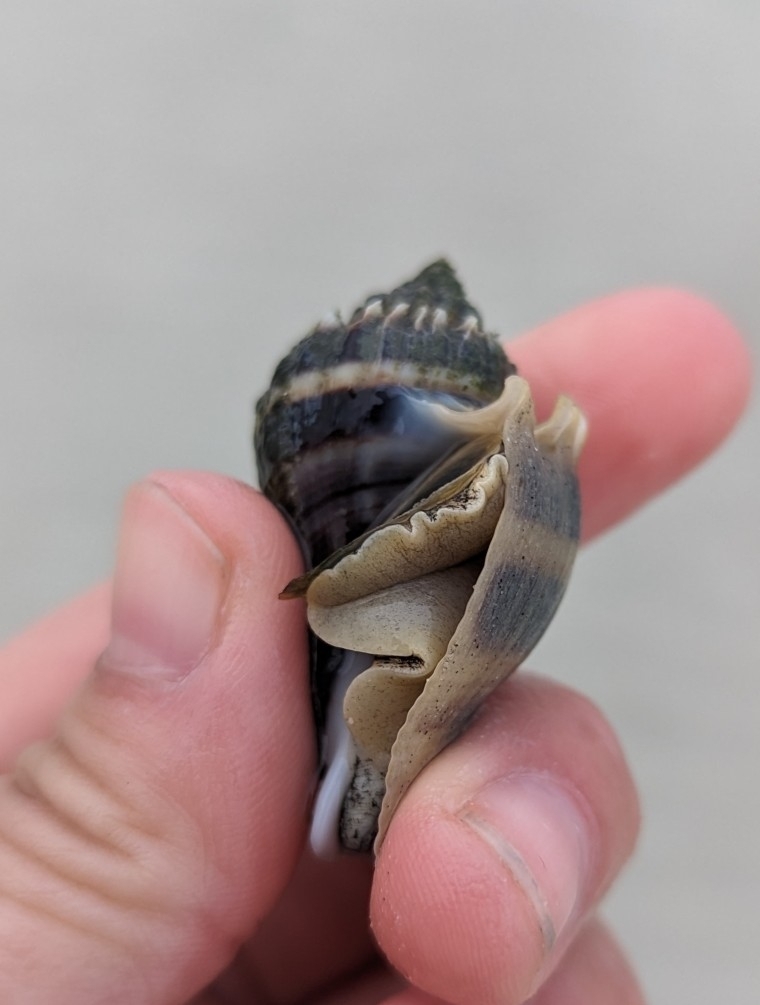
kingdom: Animalia
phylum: Mollusca
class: Gastropoda
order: Neogastropoda
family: Melongenidae
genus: Melongena
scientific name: Melongena corona
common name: American crown conch
